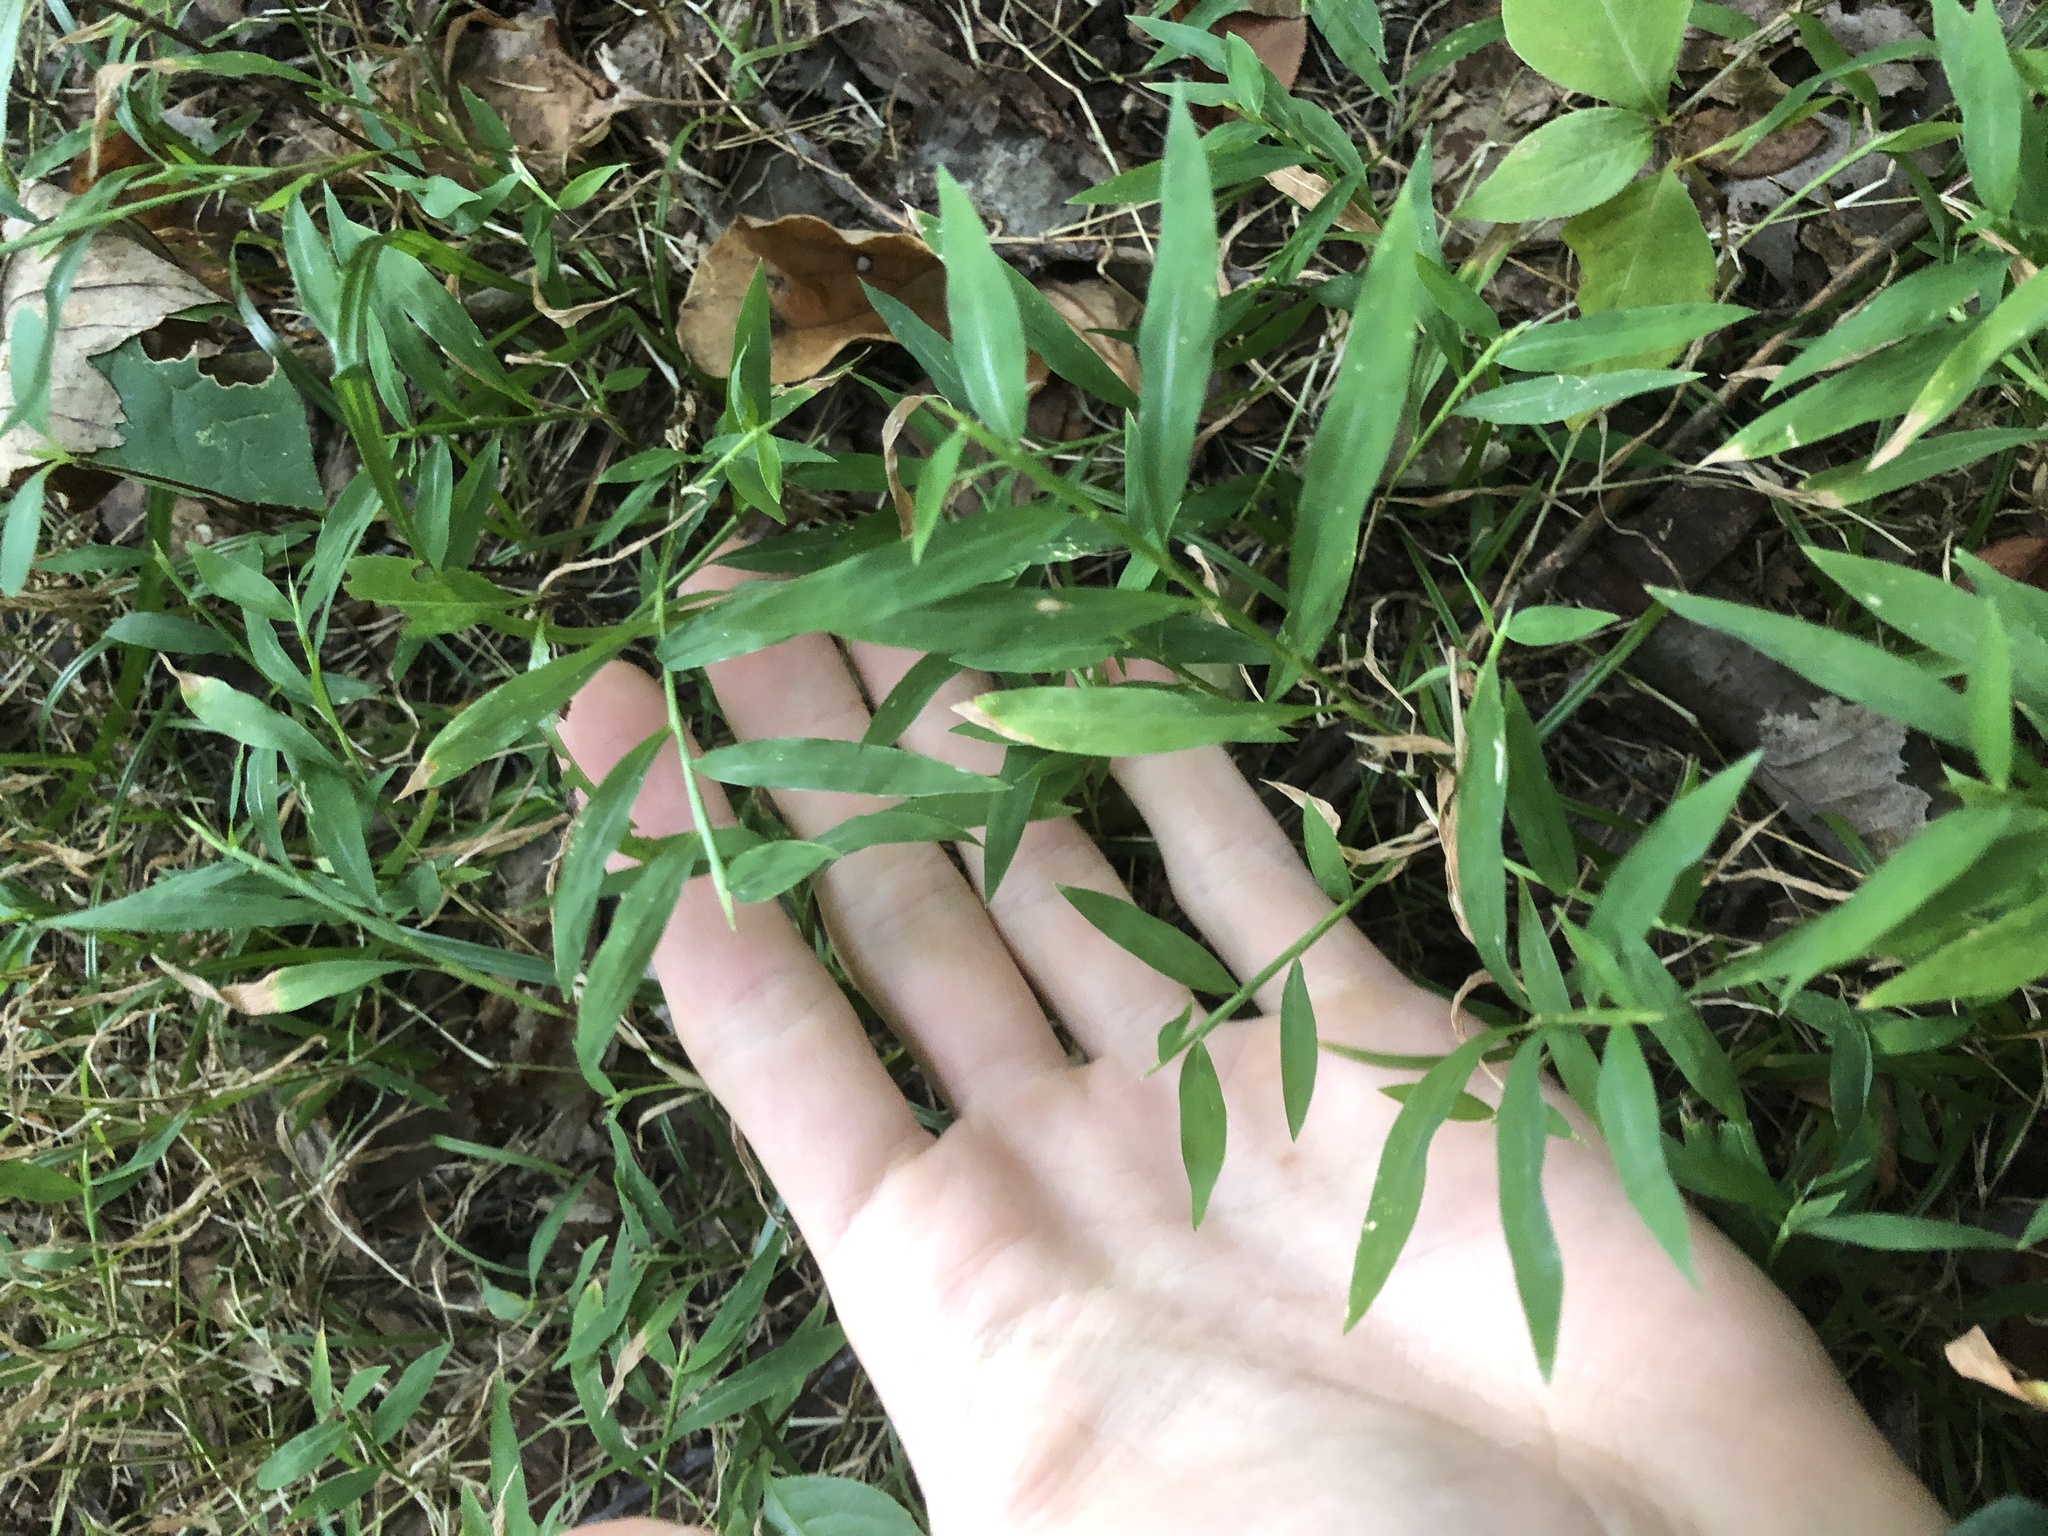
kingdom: Plantae
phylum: Tracheophyta
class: Liliopsida
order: Poales
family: Poaceae
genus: Microstegium
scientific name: Microstegium vimineum
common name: Japanese stiltgrass
